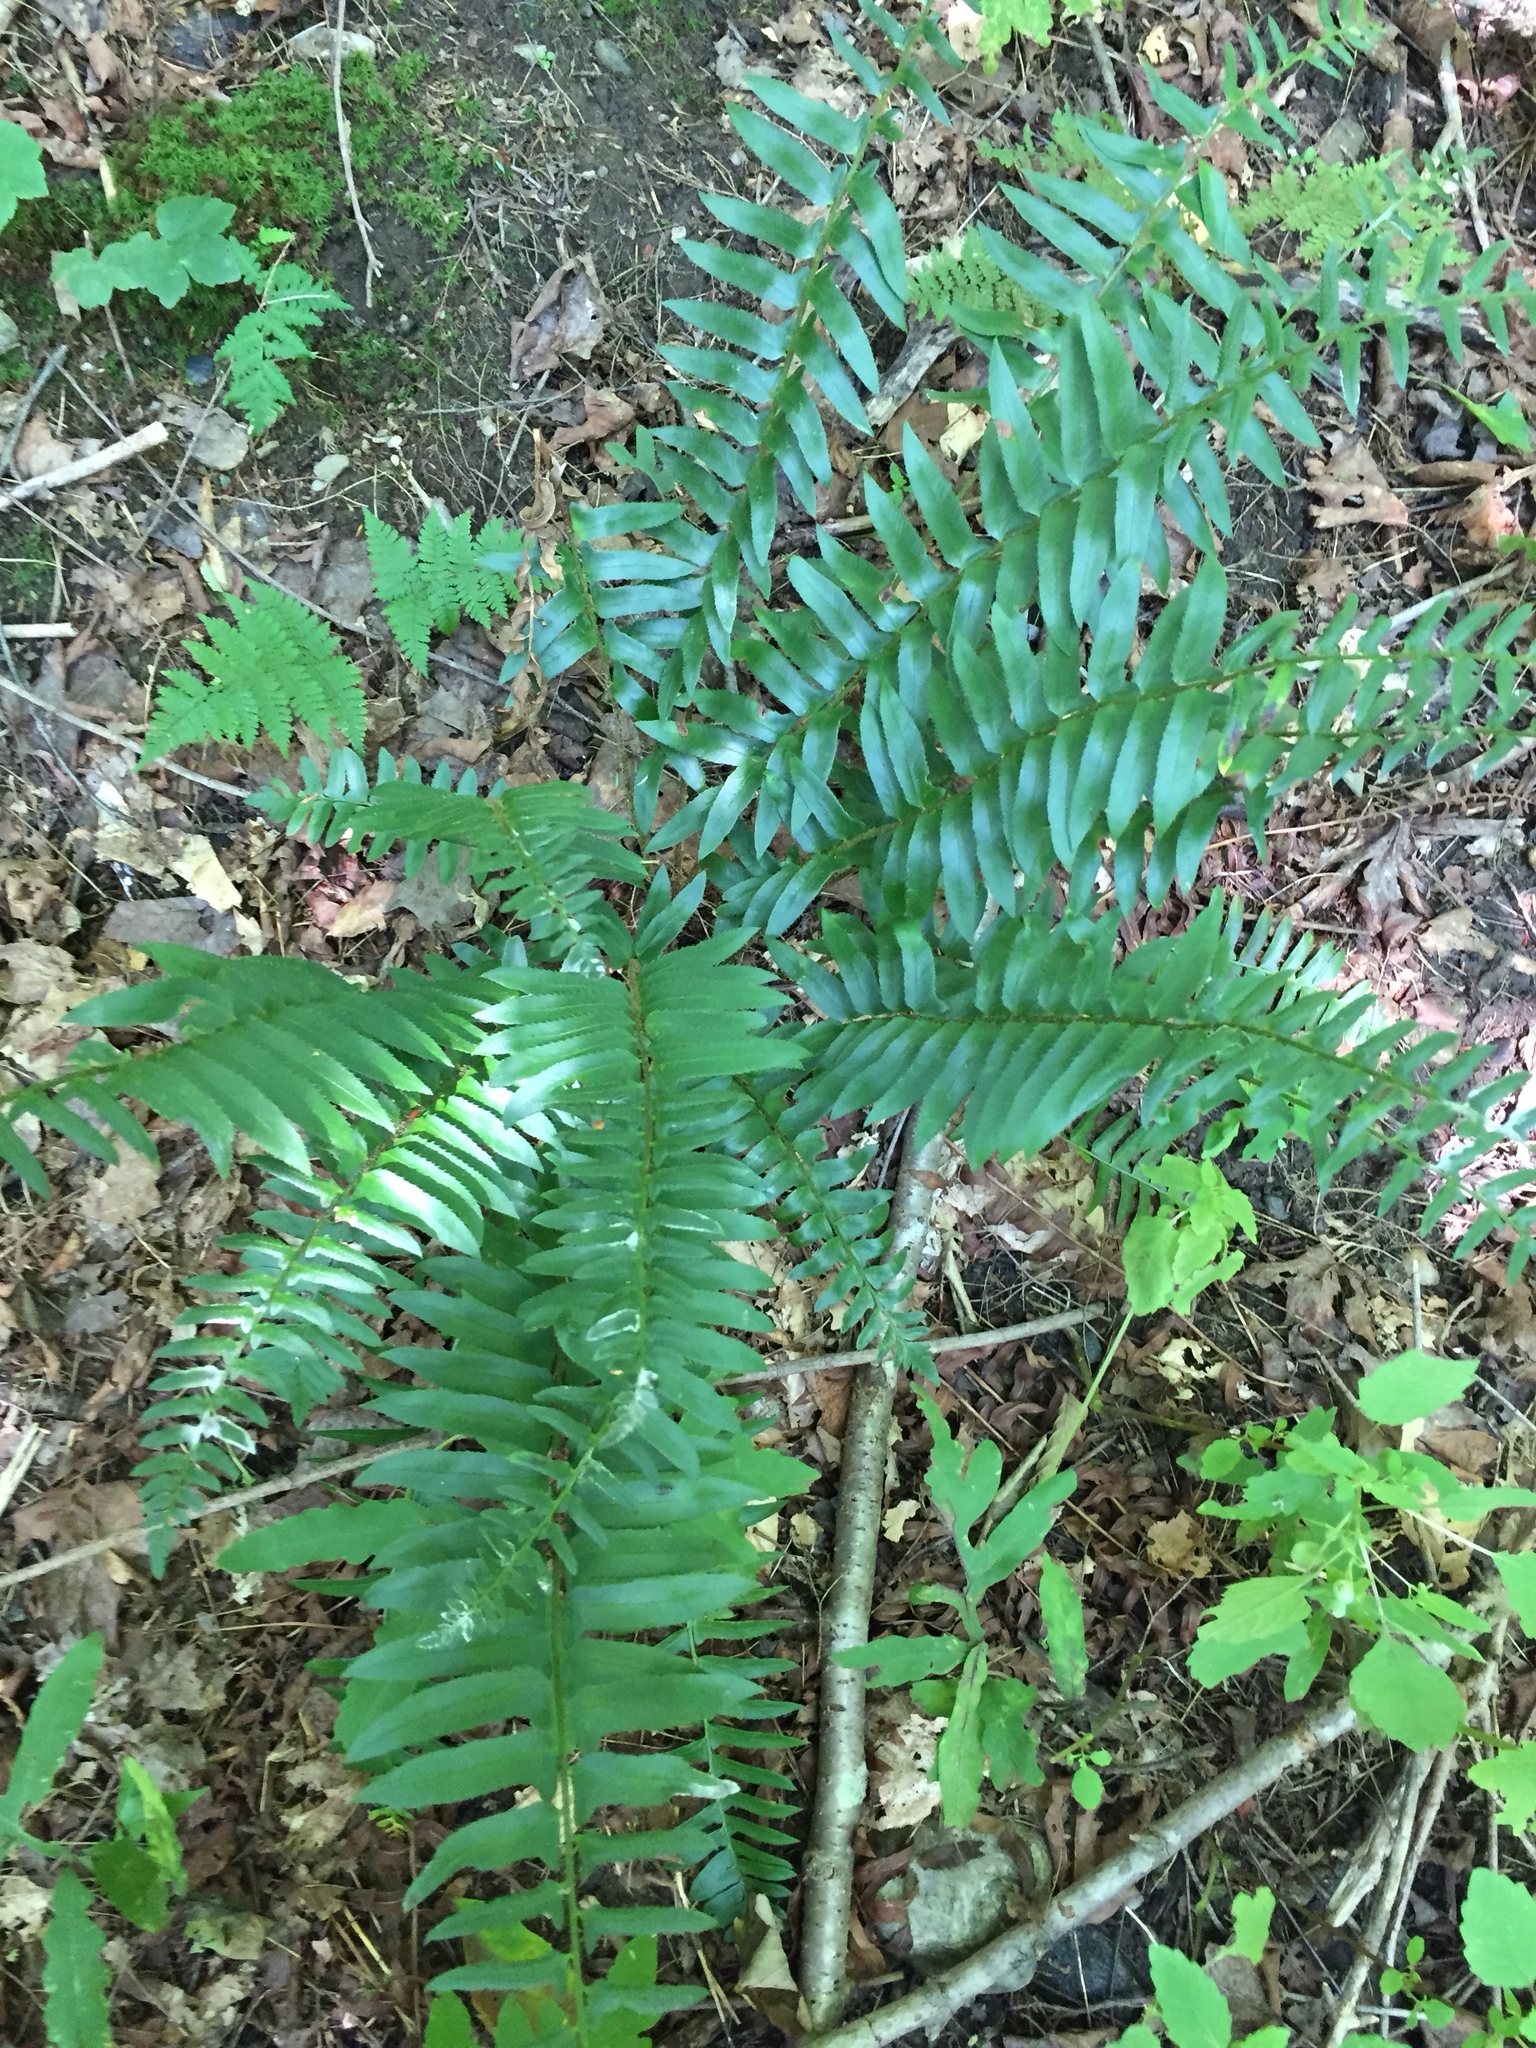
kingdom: Plantae
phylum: Tracheophyta
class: Polypodiopsida
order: Polypodiales
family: Dryopteridaceae
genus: Polystichum
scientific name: Polystichum acrostichoides
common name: Christmas fern
